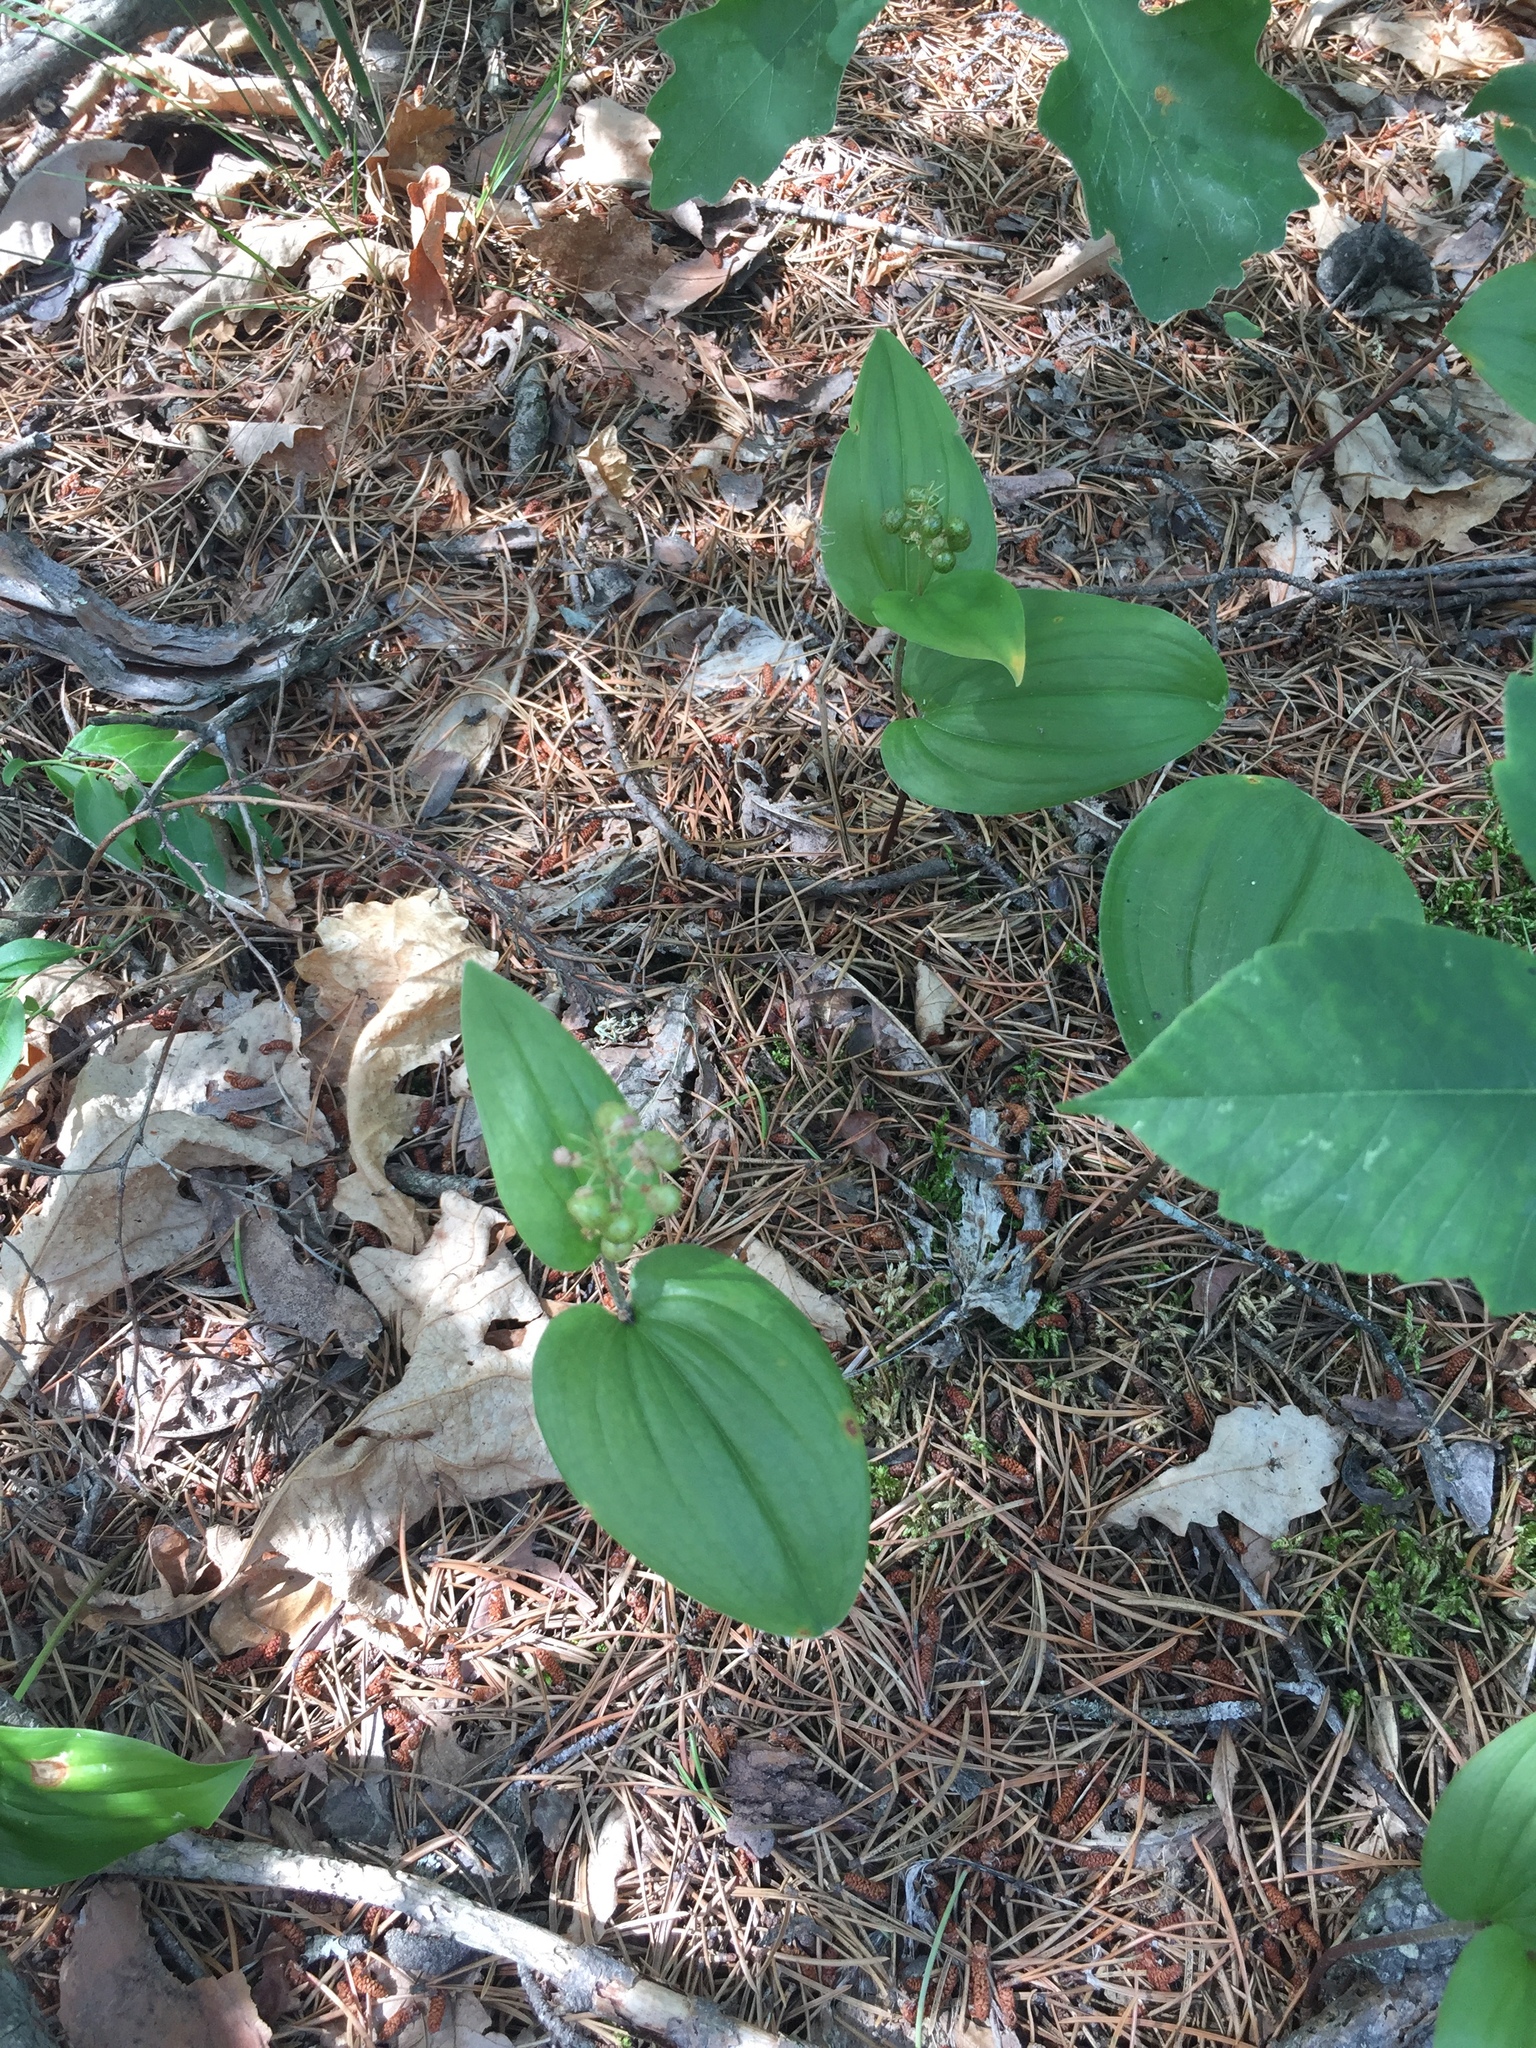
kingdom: Plantae
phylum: Tracheophyta
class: Liliopsida
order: Asparagales
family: Asparagaceae
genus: Maianthemum
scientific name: Maianthemum canadense
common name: False lily-of-the-valley
